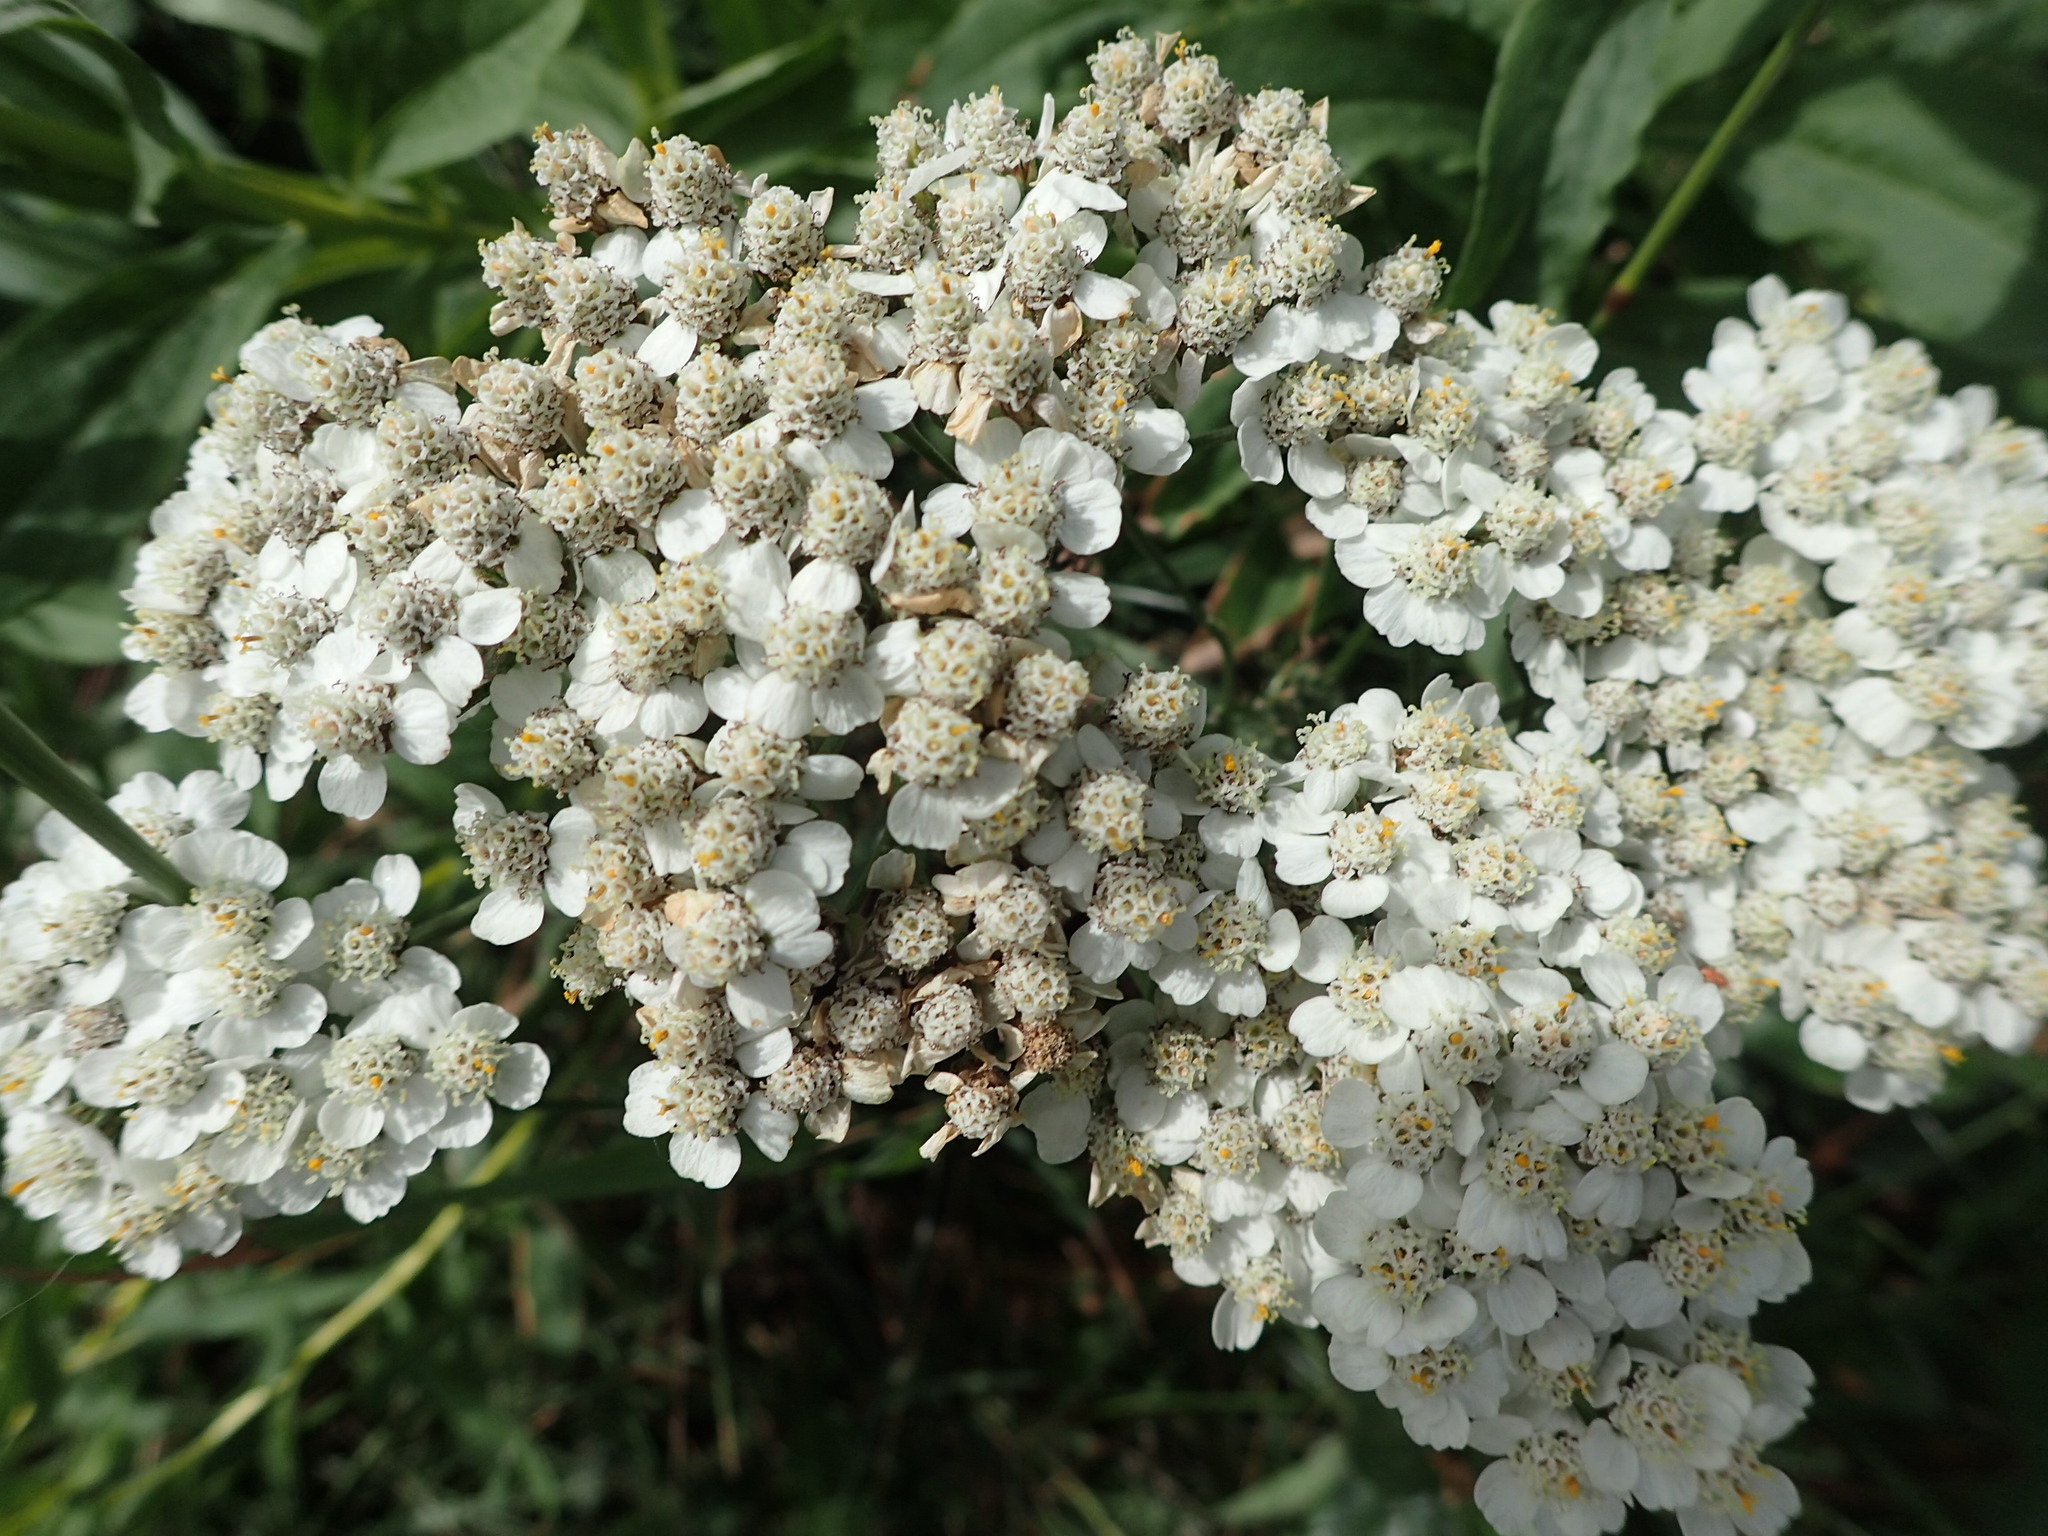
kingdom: Plantae
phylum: Tracheophyta
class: Magnoliopsida
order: Asterales
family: Asteraceae
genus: Achillea
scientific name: Achillea millefolium
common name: Yarrow
